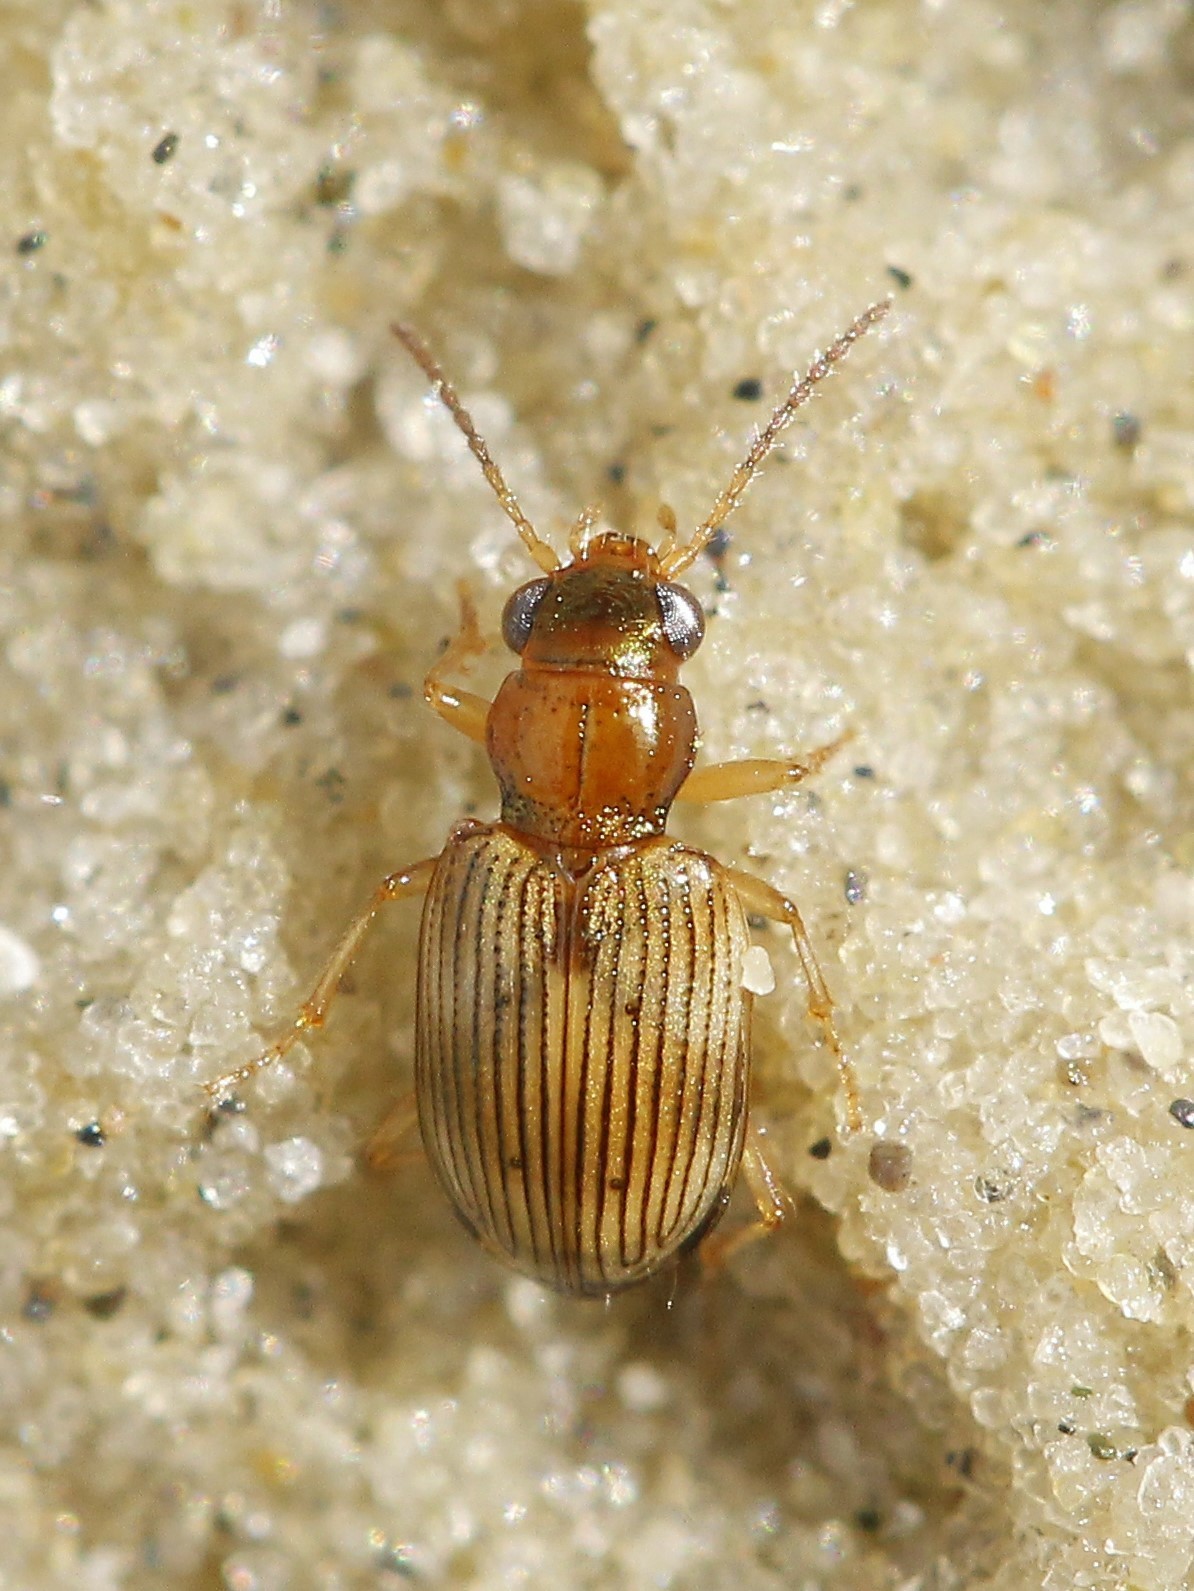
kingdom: Animalia
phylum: Arthropoda
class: Insecta
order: Coleoptera
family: Carabidae
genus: Bembidion
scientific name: Bembidion ruficolle
